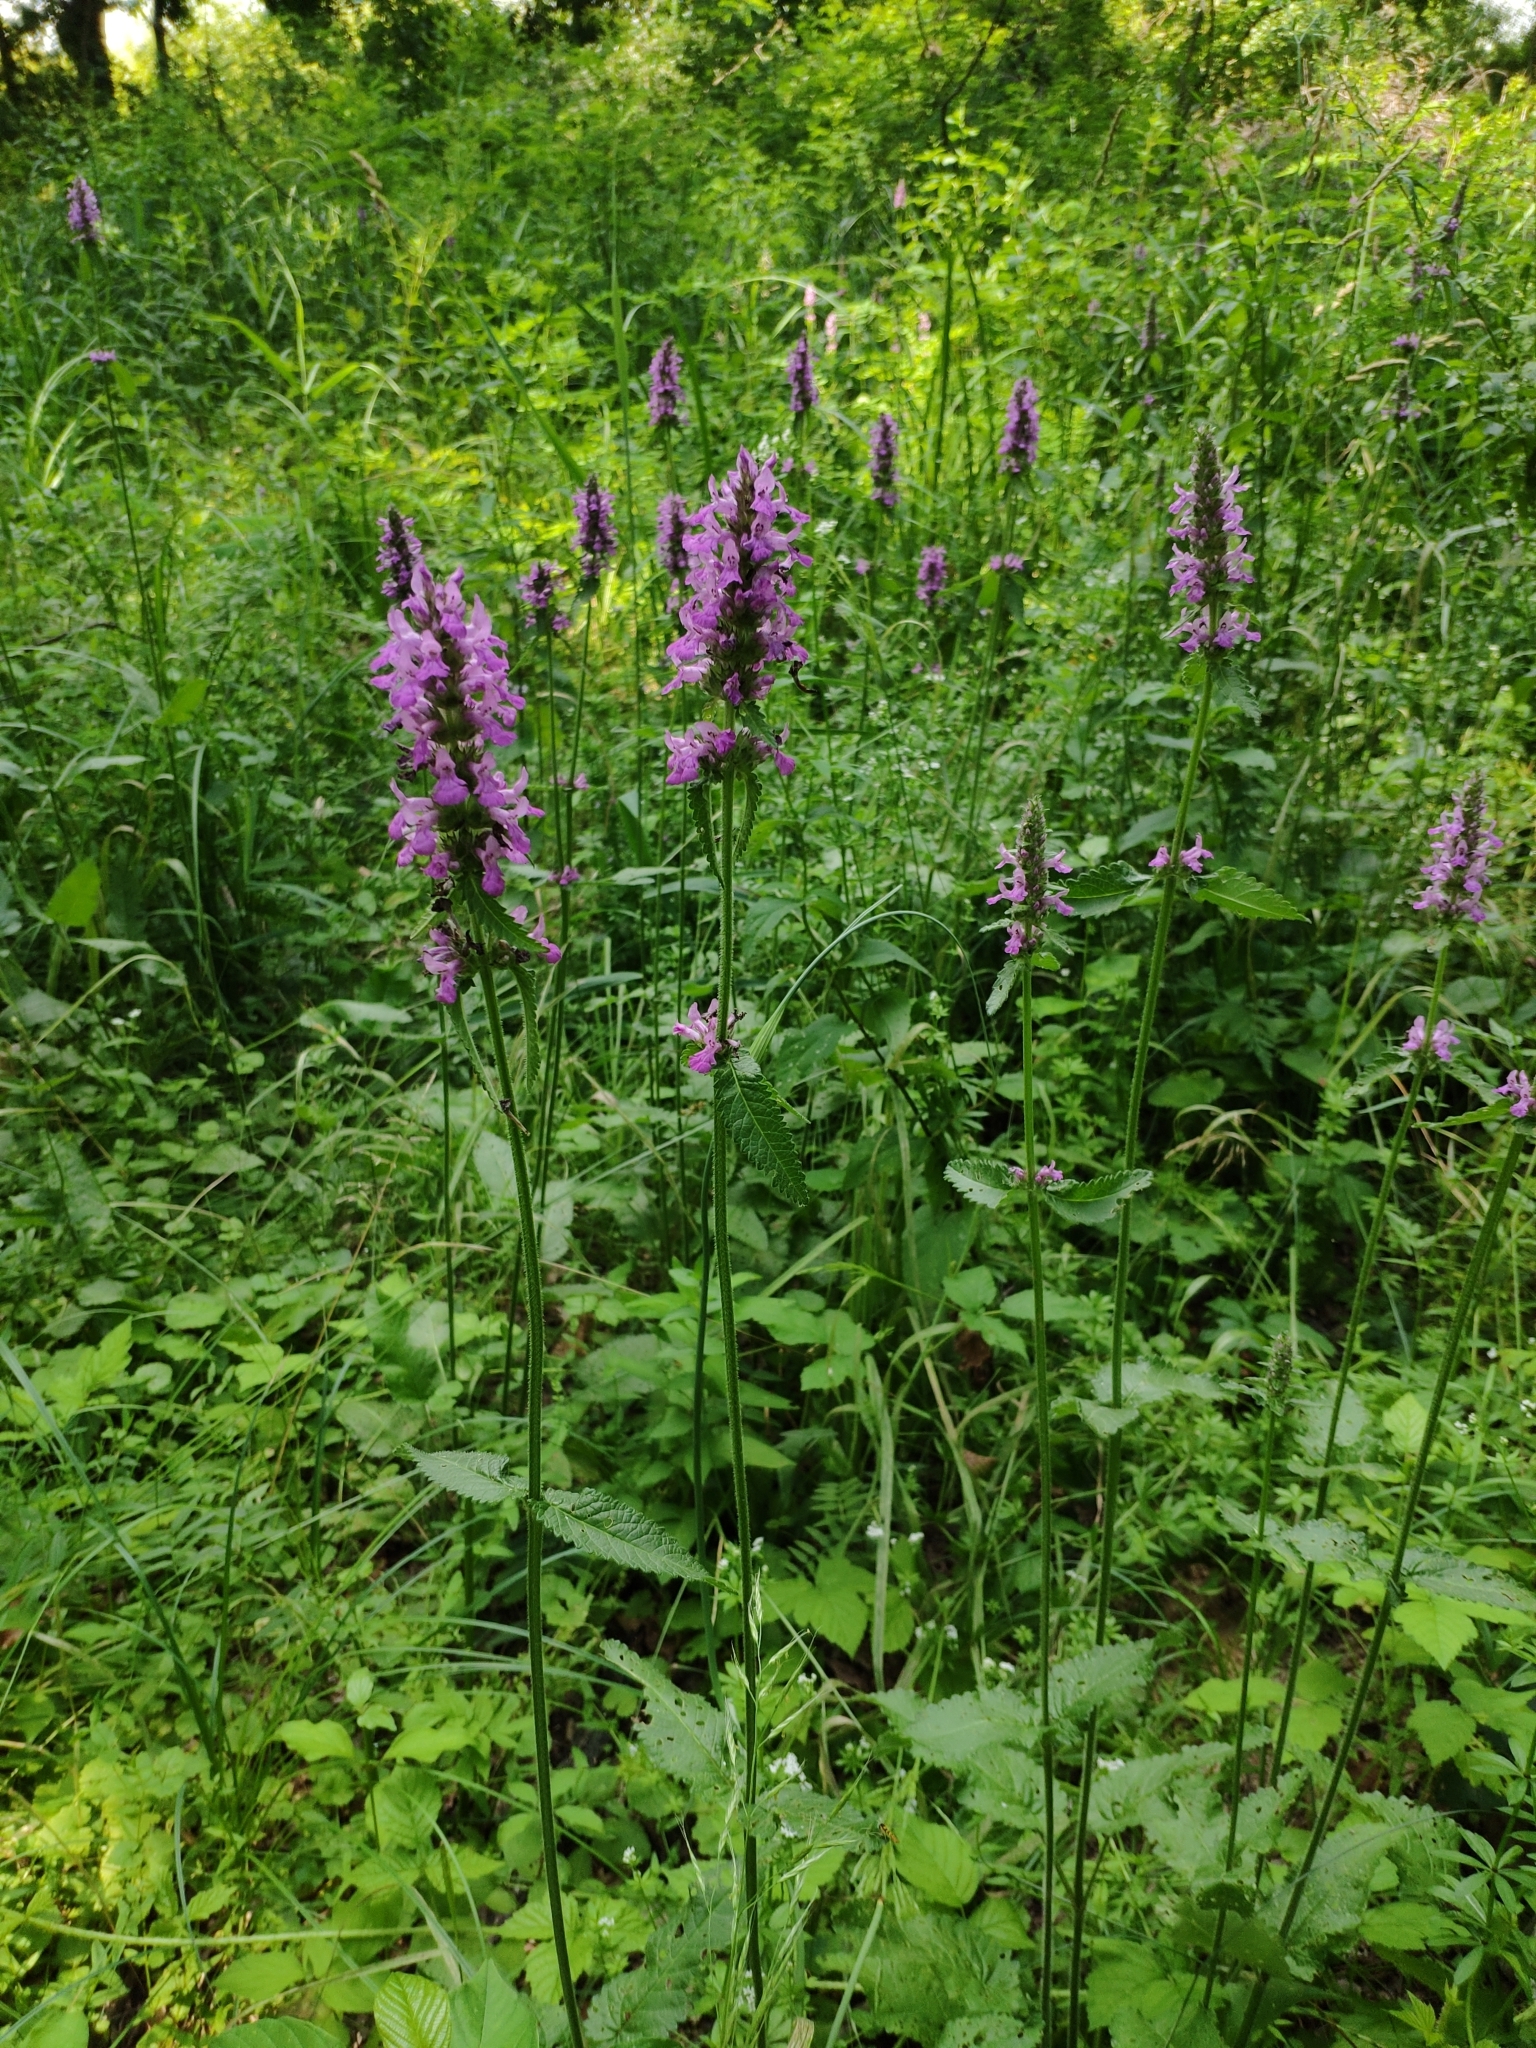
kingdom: Plantae
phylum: Tracheophyta
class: Magnoliopsida
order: Lamiales
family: Lamiaceae
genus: Betonica
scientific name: Betonica officinalis
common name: Bishop's-wort
